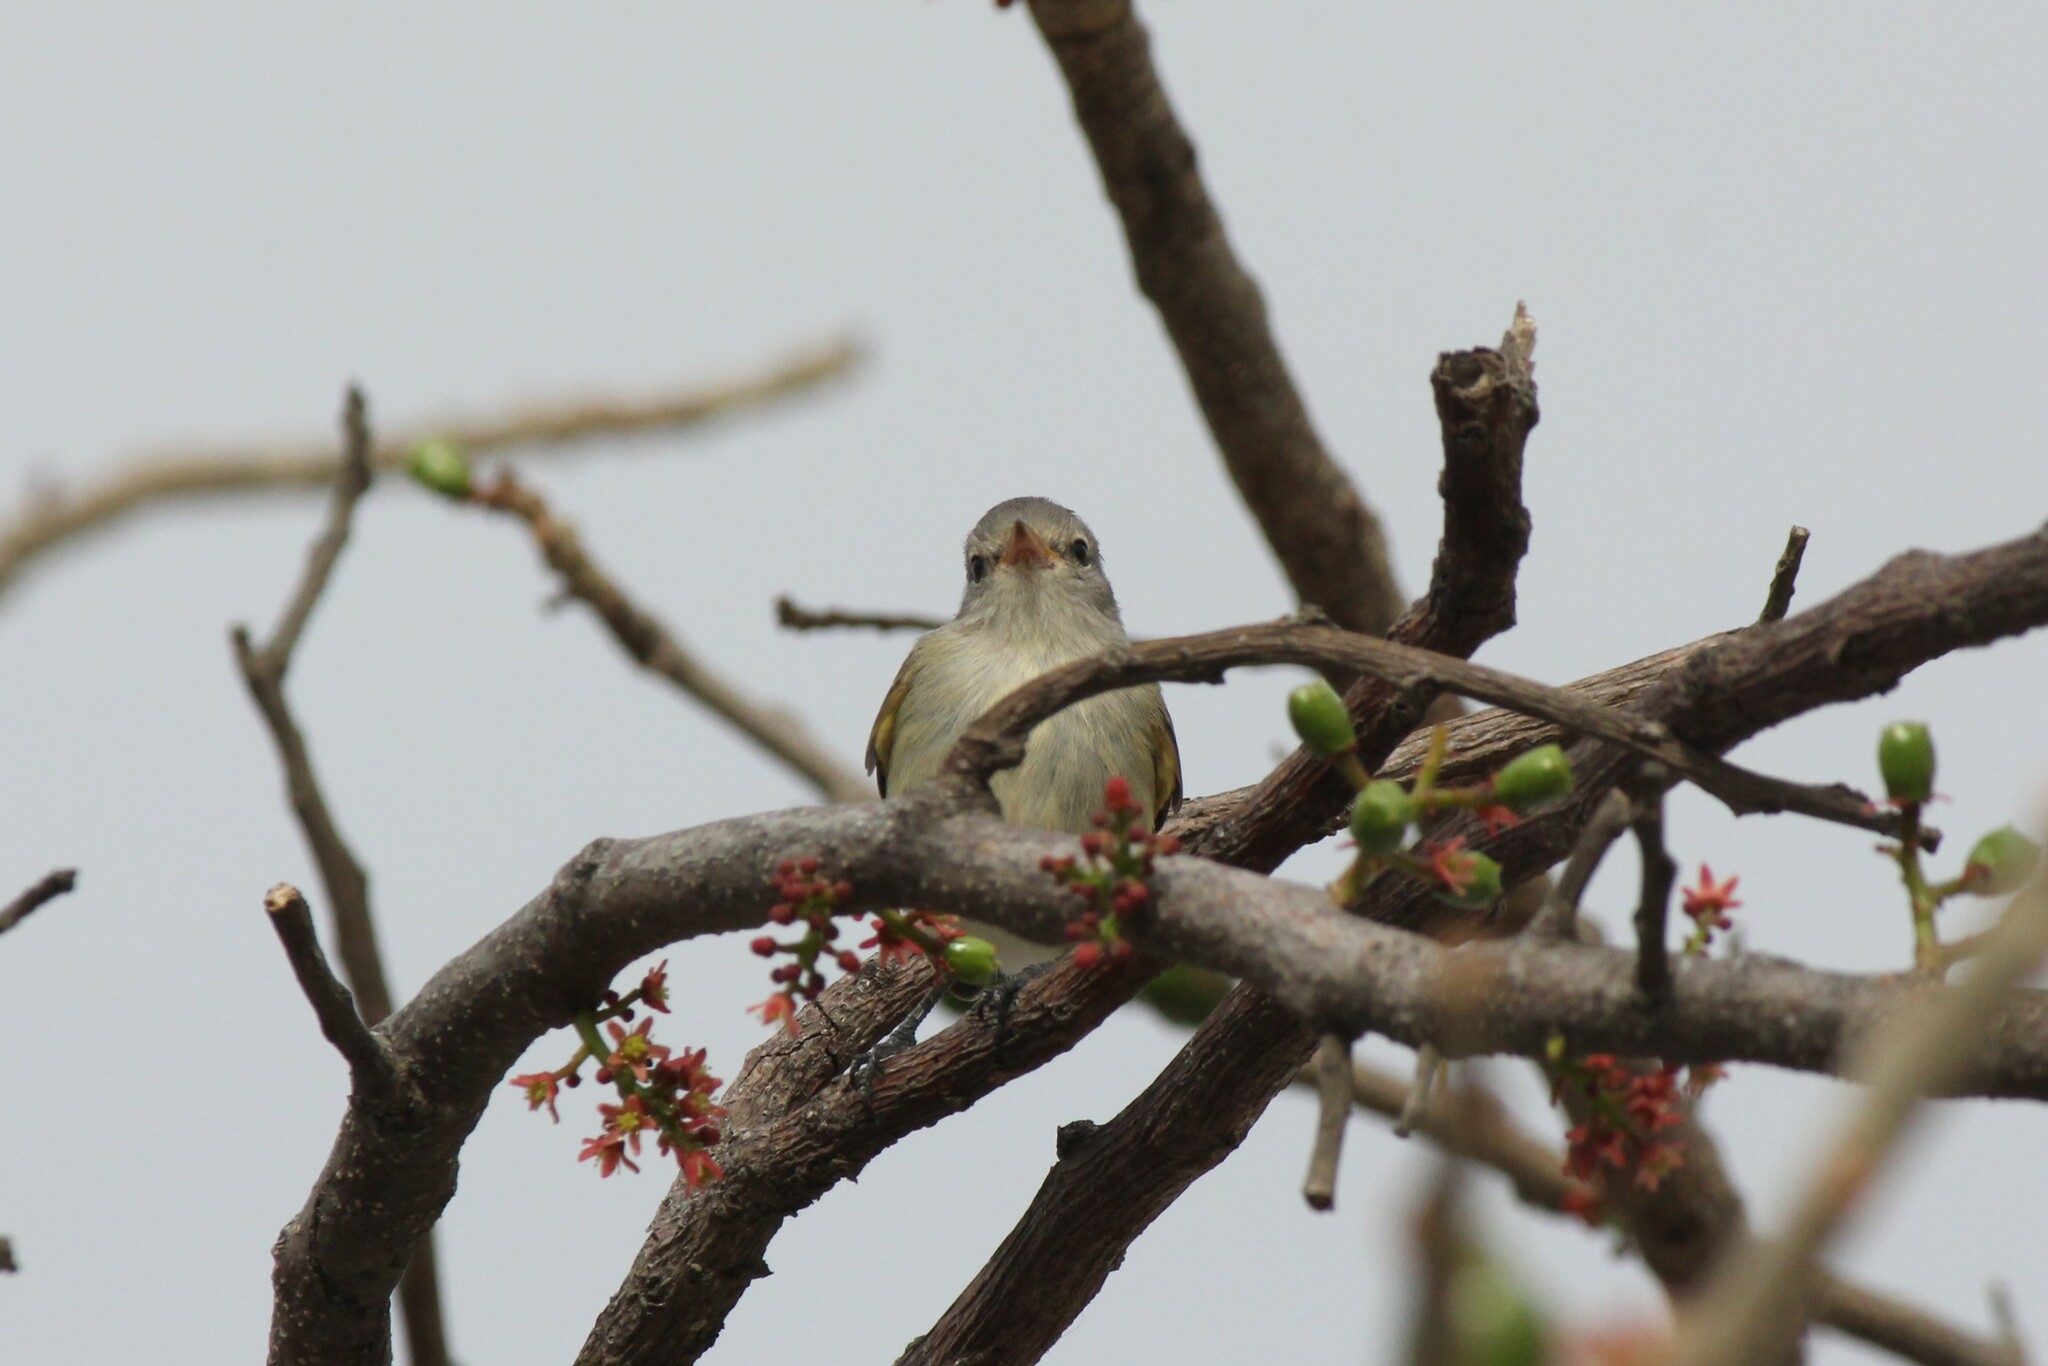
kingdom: Animalia
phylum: Chordata
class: Aves
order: Passeriformes
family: Tyrannidae
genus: Camptostoma
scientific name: Camptostoma obsoletum
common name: Southern beardless-tyrannulet
